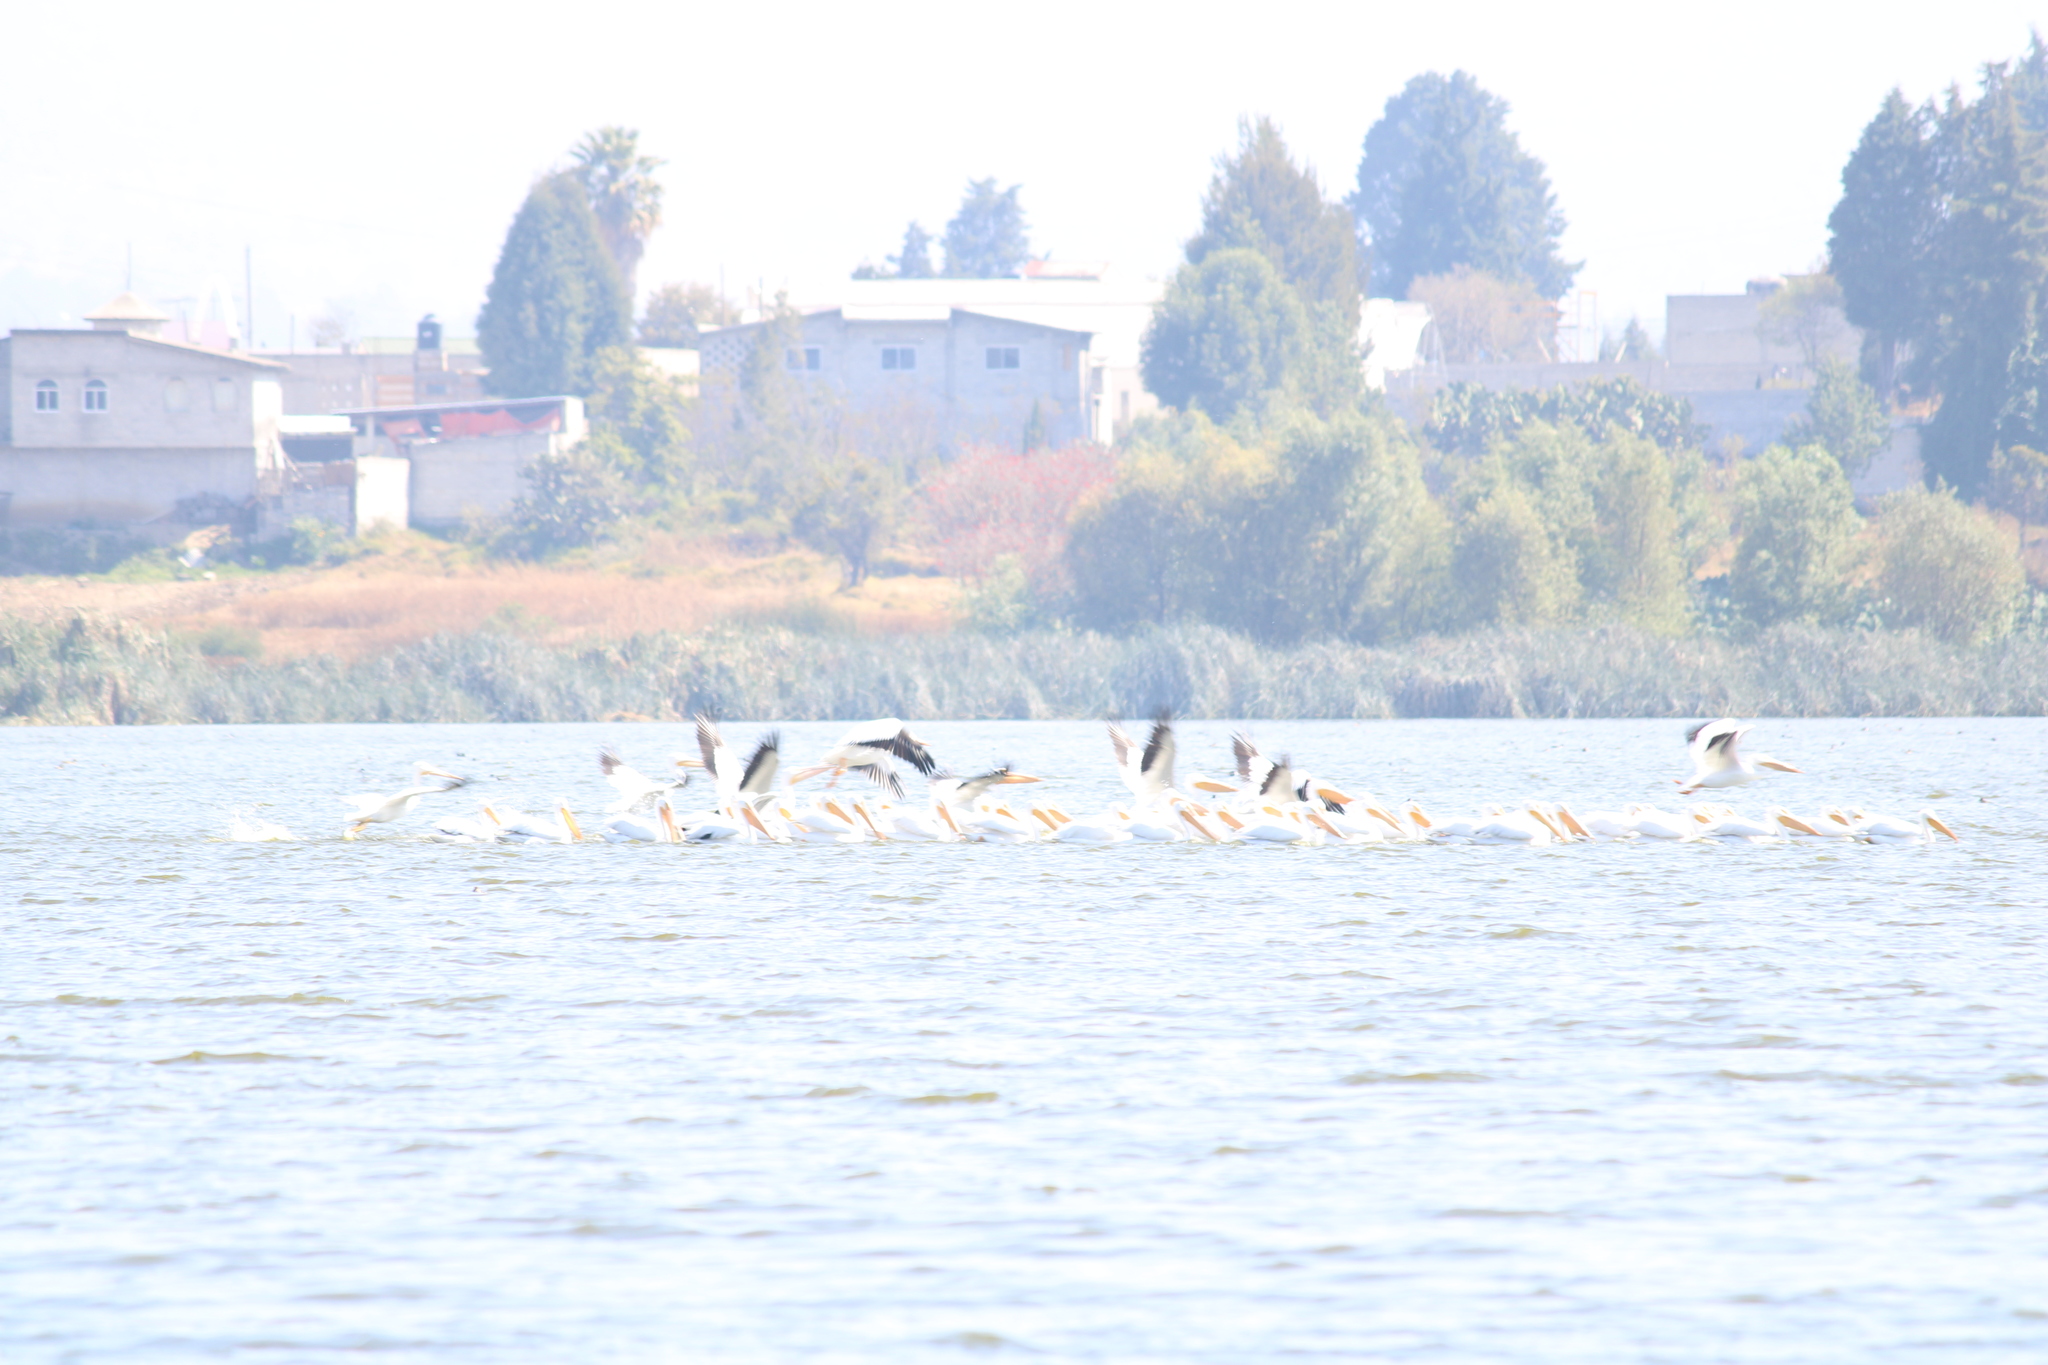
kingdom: Animalia
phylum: Chordata
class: Aves
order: Pelecaniformes
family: Pelecanidae
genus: Pelecanus
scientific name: Pelecanus erythrorhynchos
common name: American white pelican
